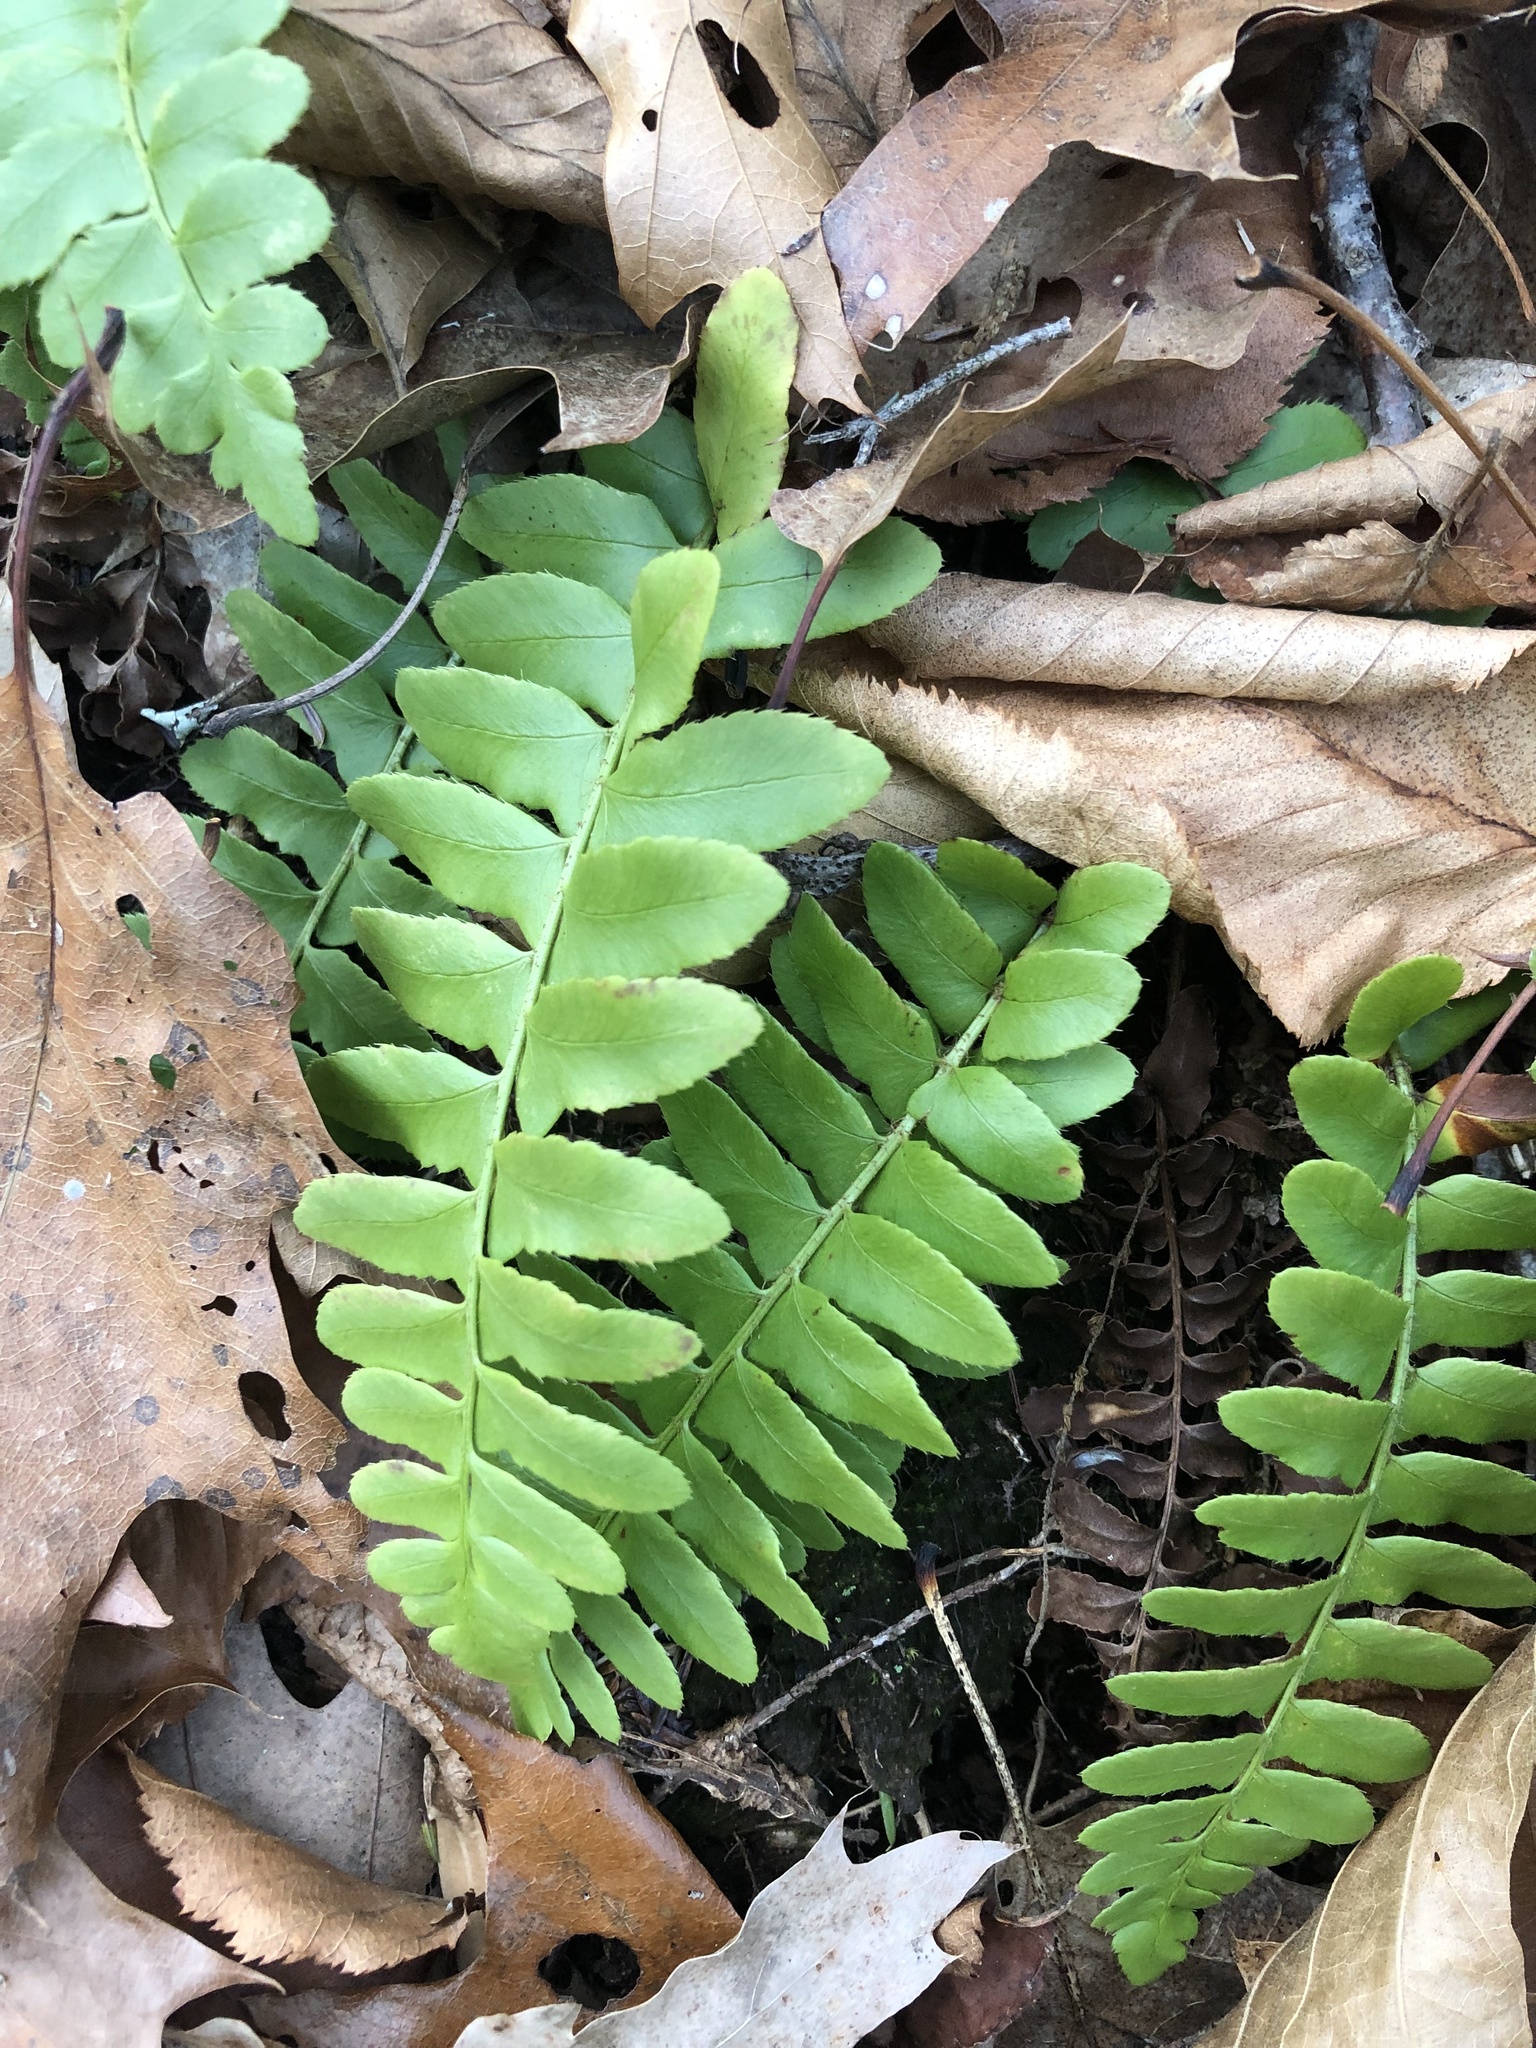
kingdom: Plantae
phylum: Tracheophyta
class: Polypodiopsida
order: Polypodiales
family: Dryopteridaceae
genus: Polystichum
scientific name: Polystichum acrostichoides
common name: Christmas fern
